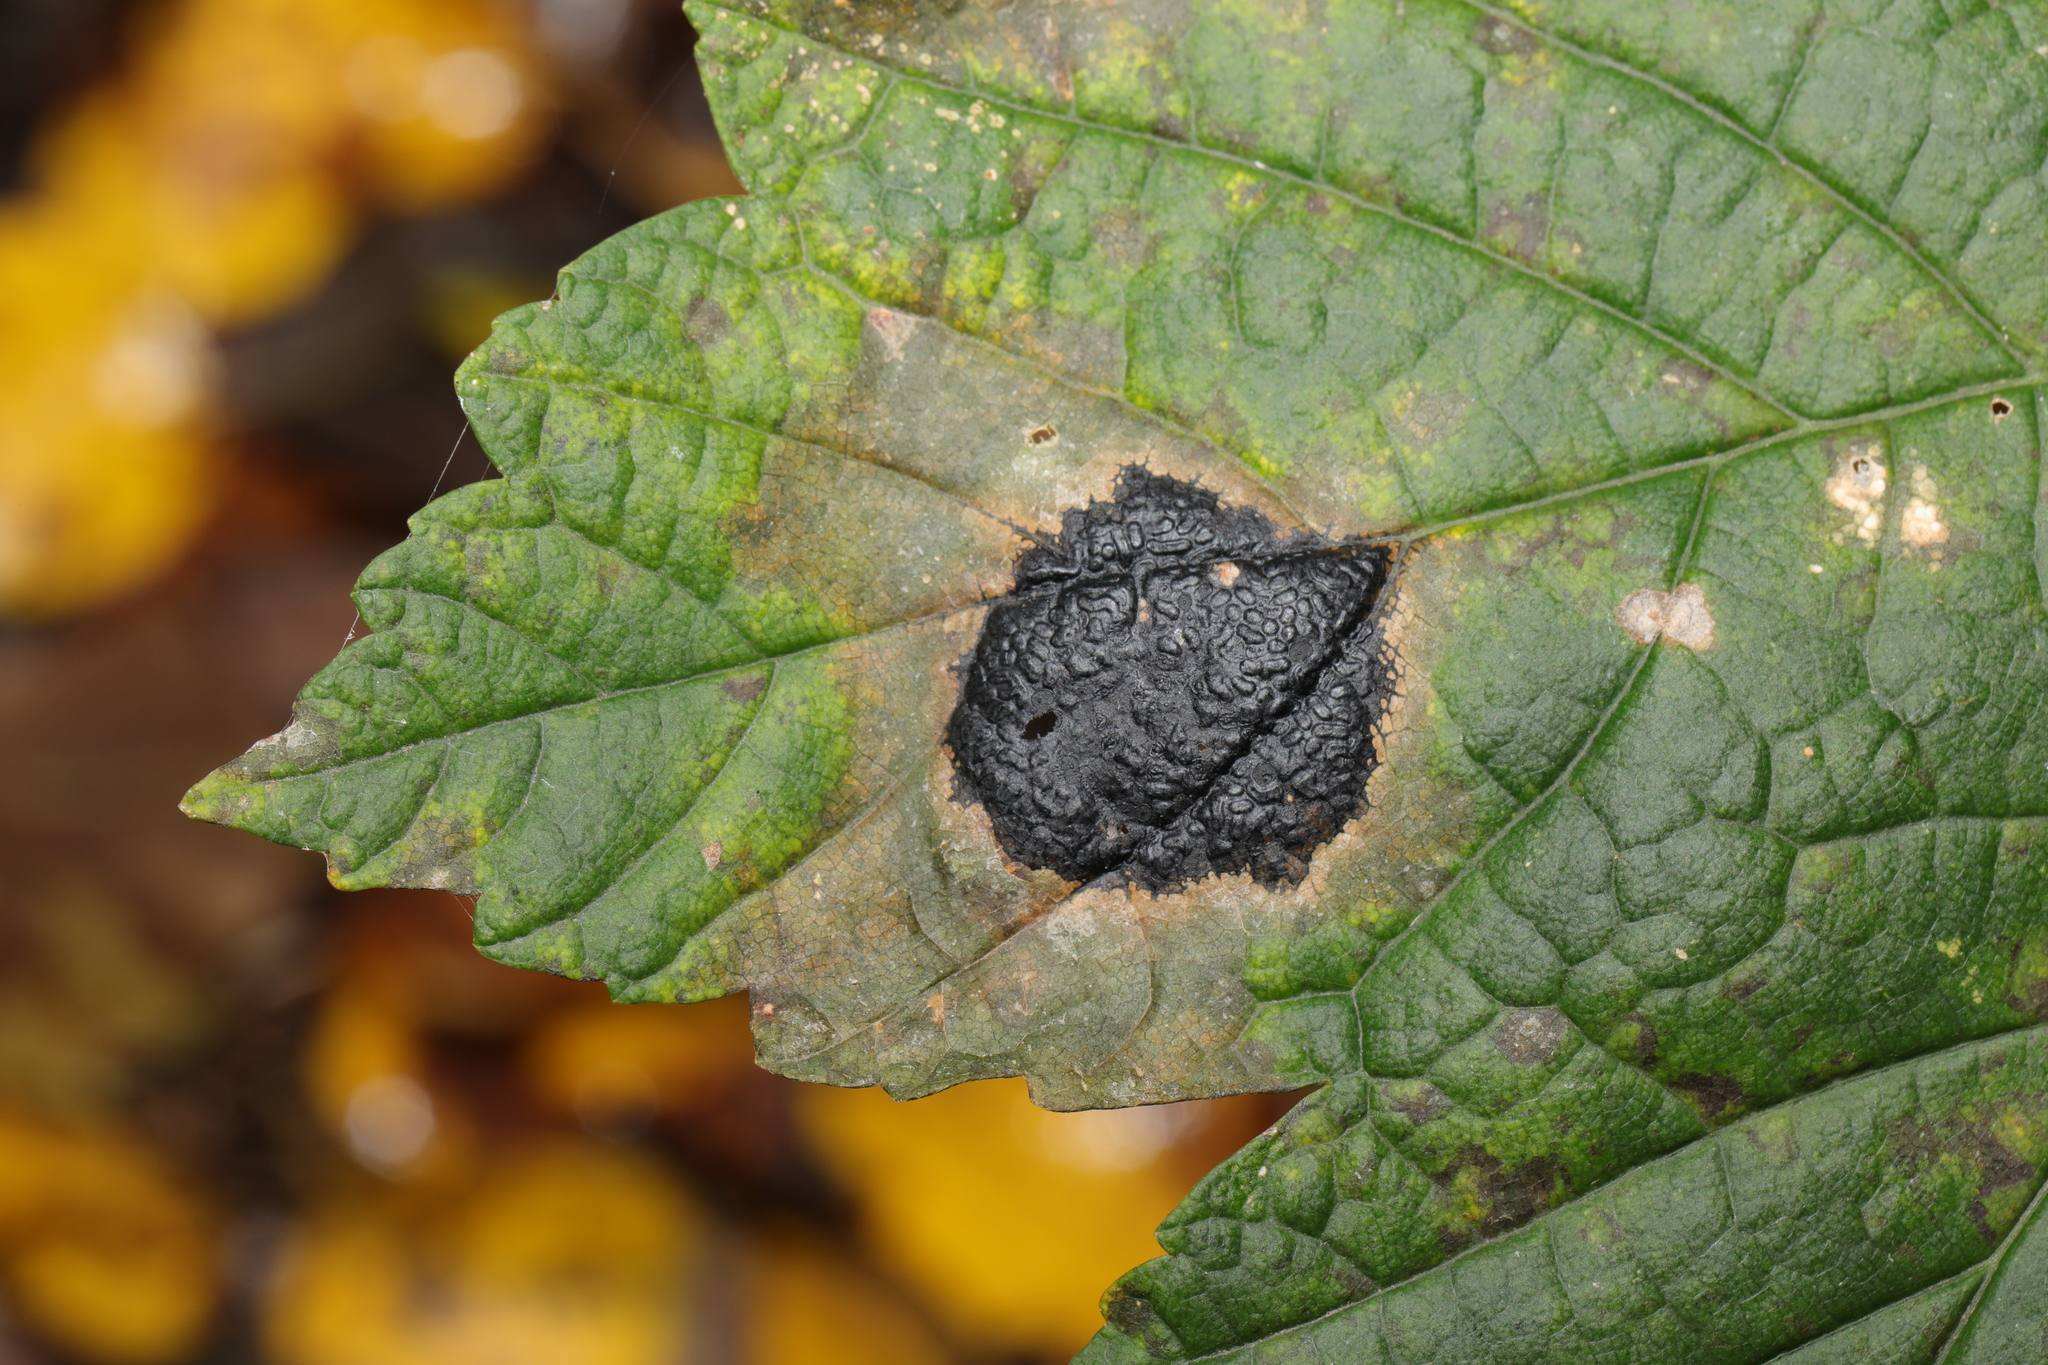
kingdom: Fungi
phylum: Ascomycota
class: Leotiomycetes
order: Rhytismatales
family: Rhytismataceae
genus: Rhytisma
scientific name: Rhytisma acerinum
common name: European tar spot
